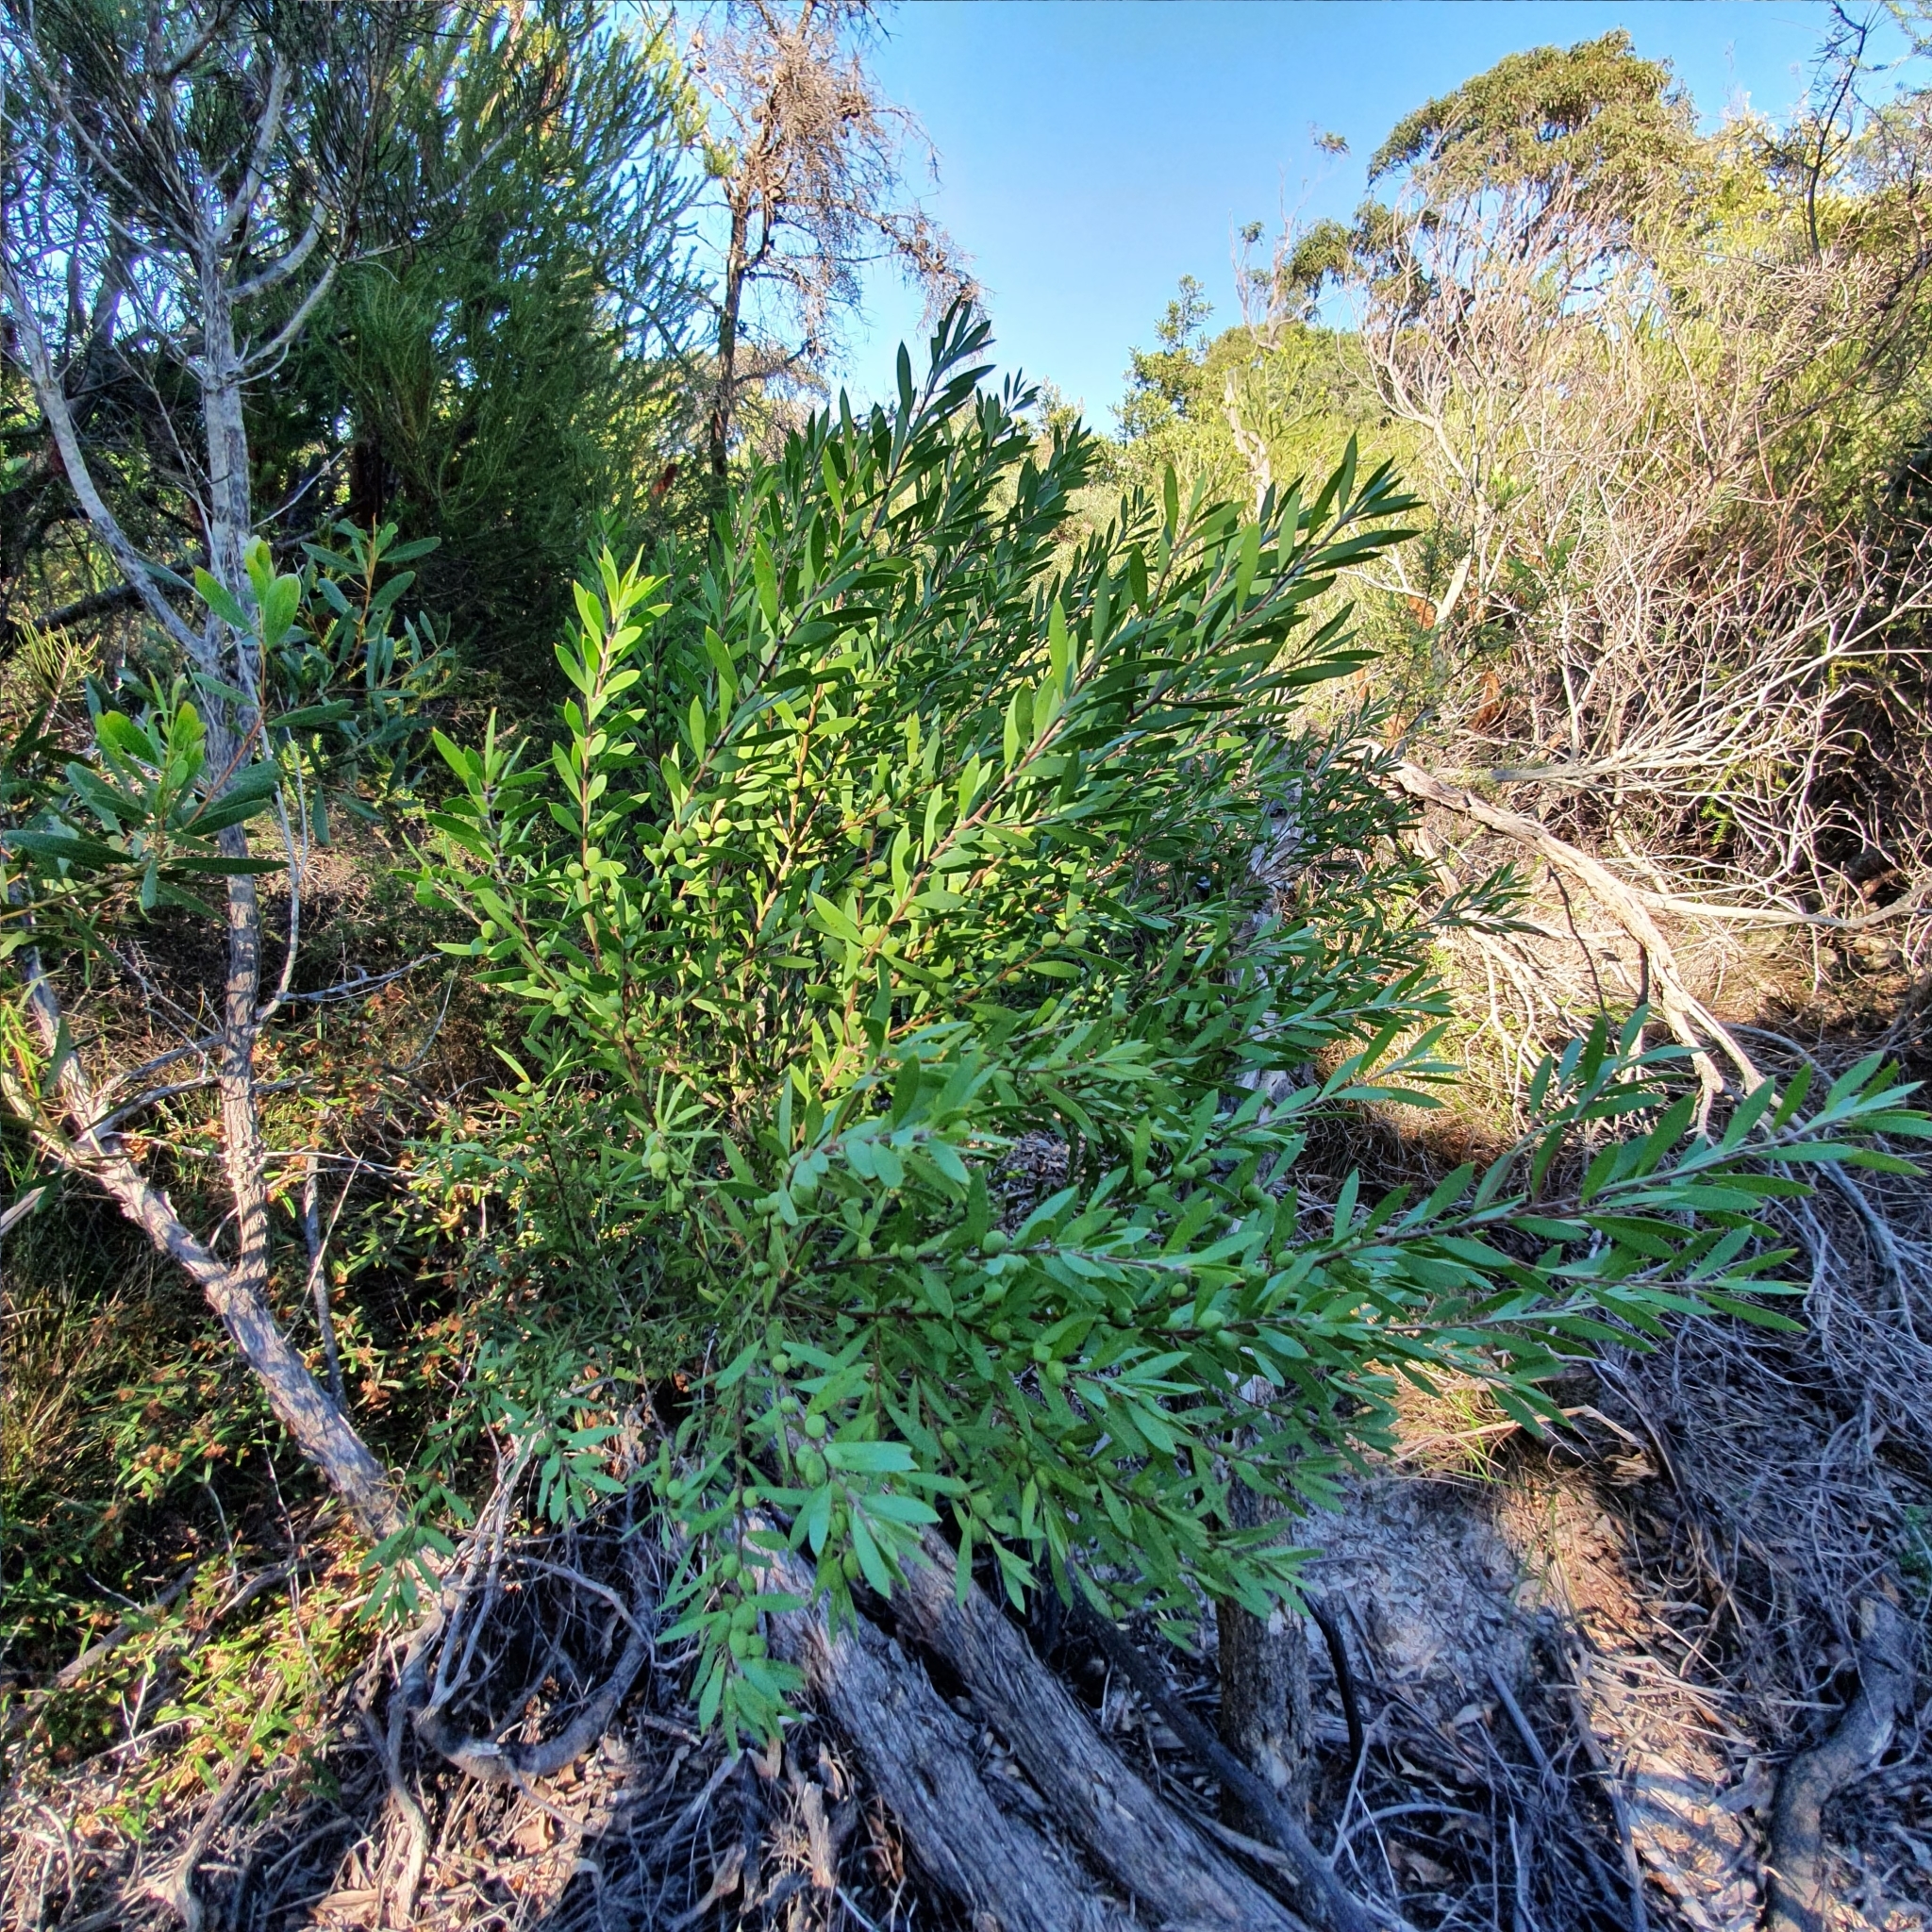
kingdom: Plantae
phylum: Tracheophyta
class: Magnoliopsida
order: Proteales
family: Proteaceae
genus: Persoonia
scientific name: Persoonia lanceolata
